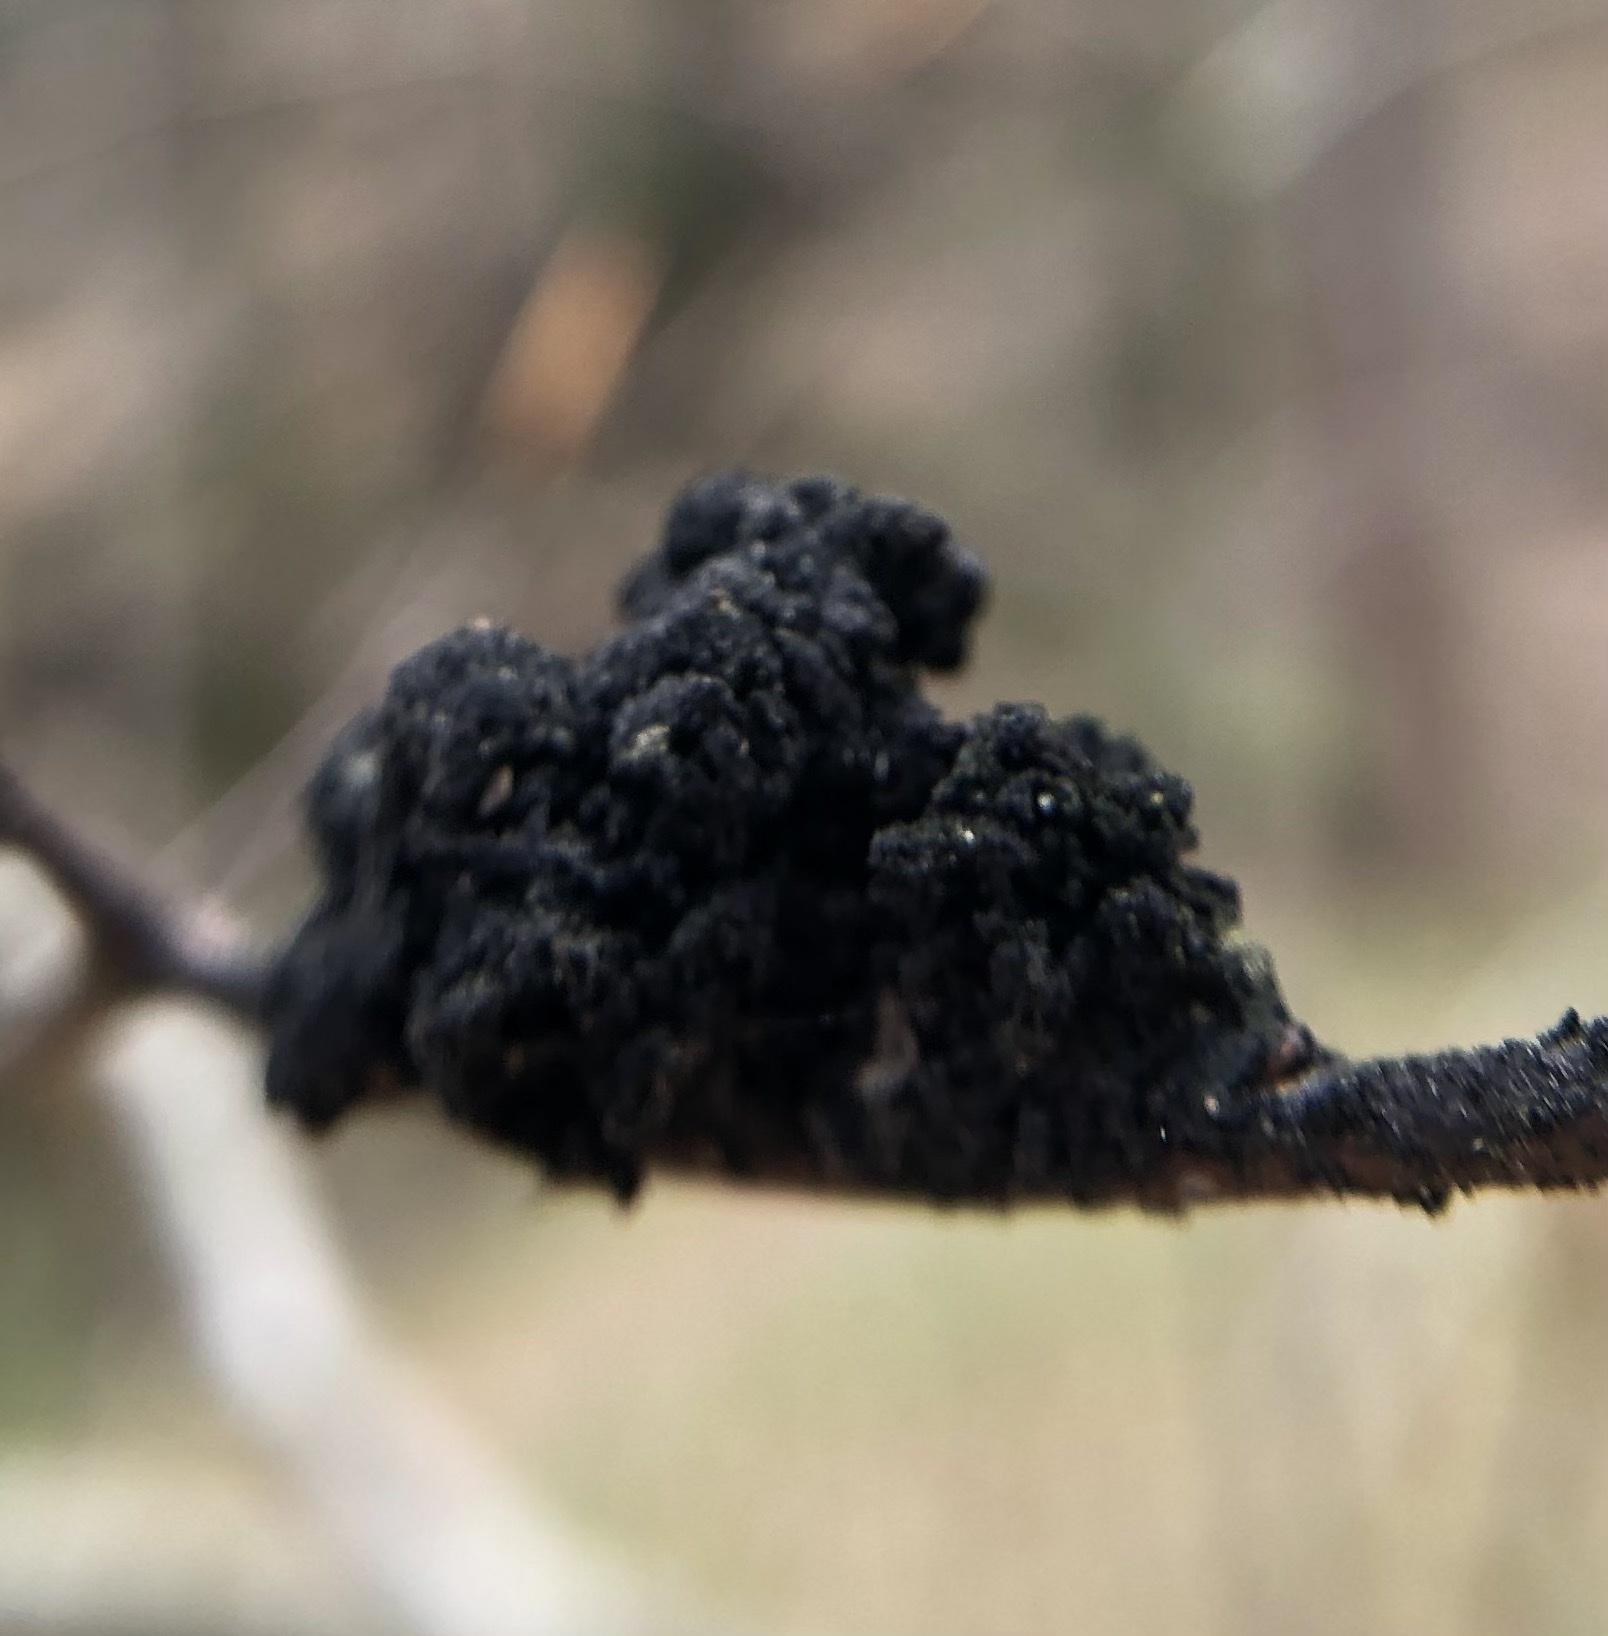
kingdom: Fungi
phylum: Ascomycota
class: Dothideomycetes
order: Capnodiales
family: Capnodiaceae
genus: Scorias
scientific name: Scorias spongiosa
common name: Black sooty mold
